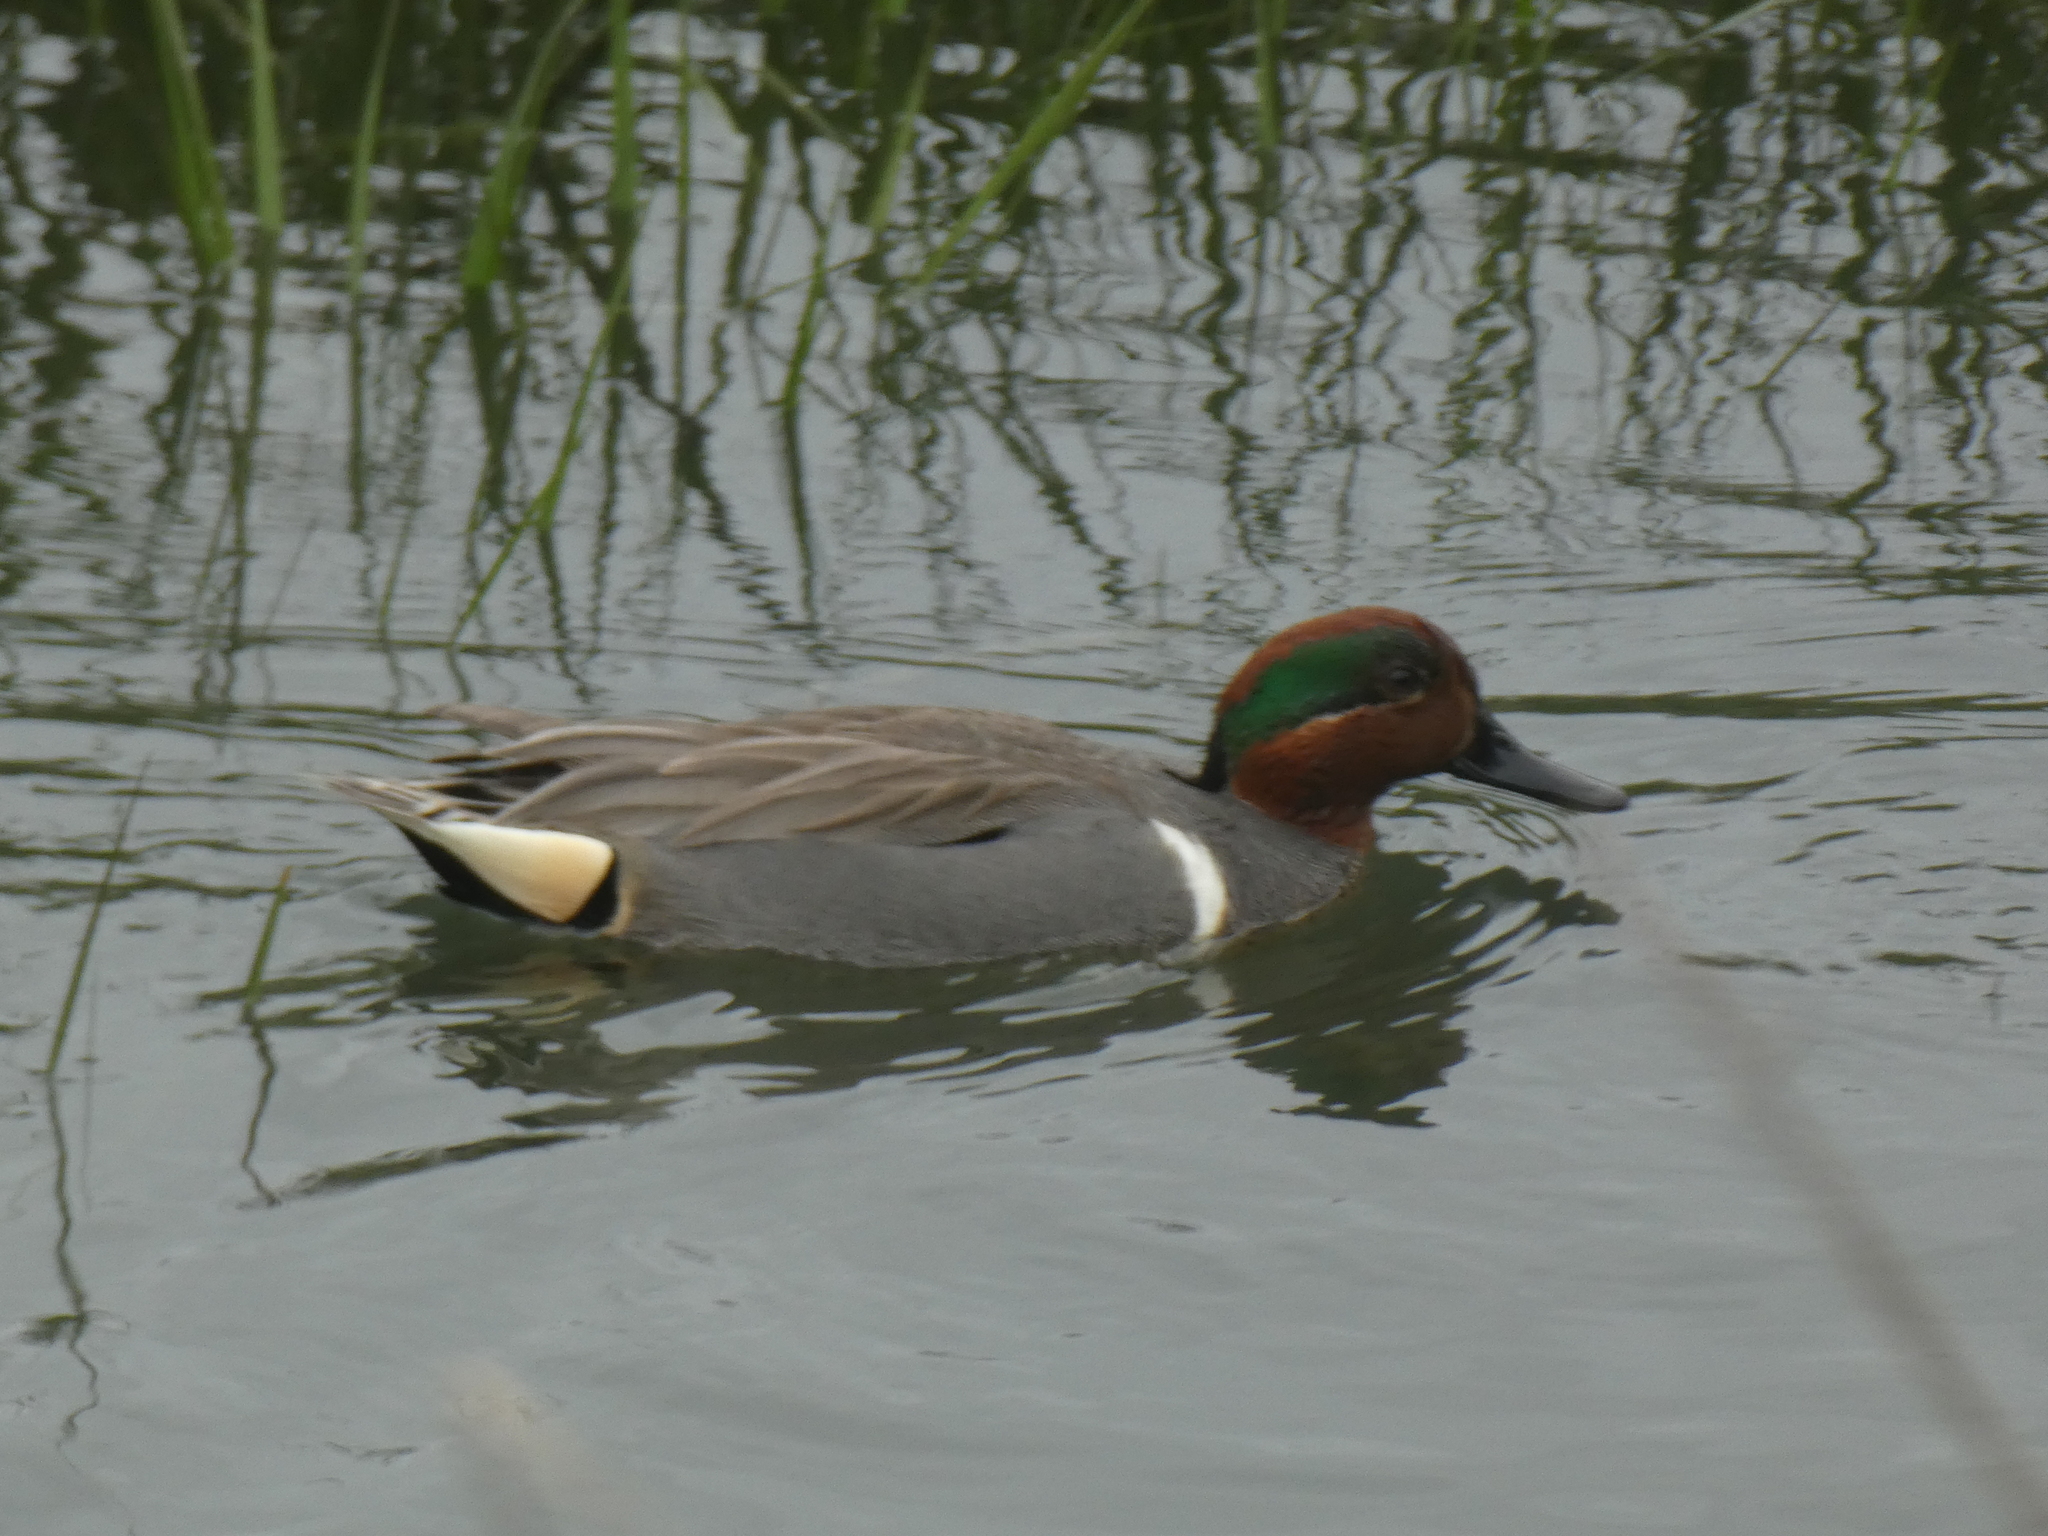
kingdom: Animalia
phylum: Chordata
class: Aves
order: Anseriformes
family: Anatidae
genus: Anas
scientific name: Anas crecca
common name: Eurasian teal
